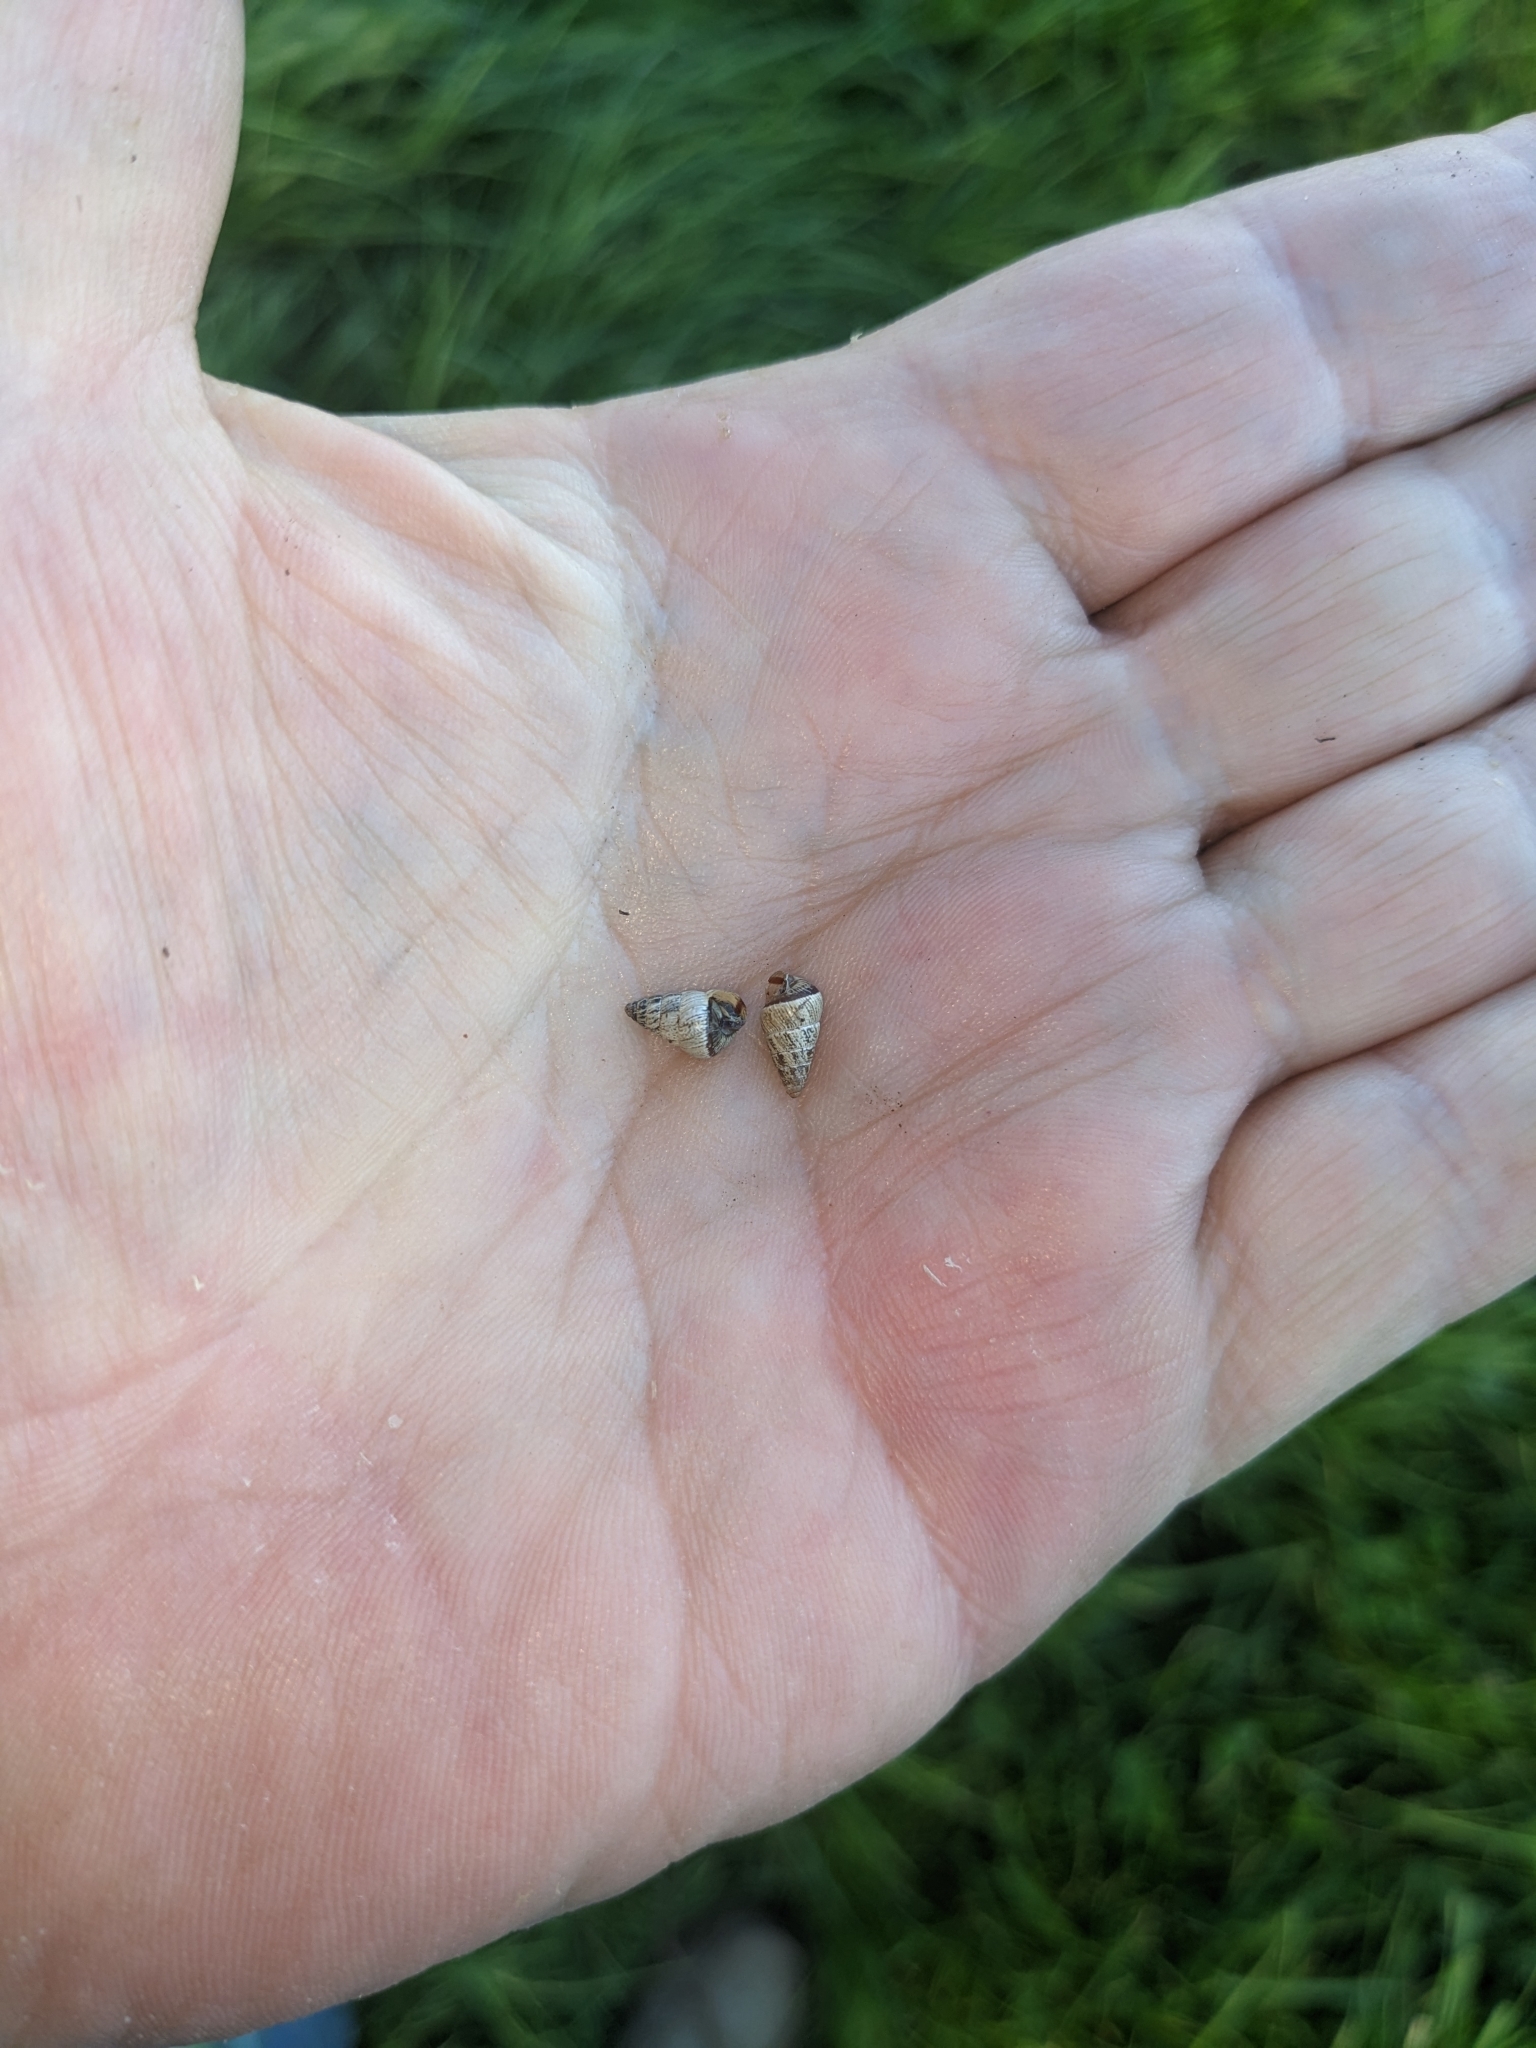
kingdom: Animalia
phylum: Mollusca
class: Gastropoda
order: Stylommatophora
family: Geomitridae
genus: Cochlicella
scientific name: Cochlicella barbara
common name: Potbellied helicellid
